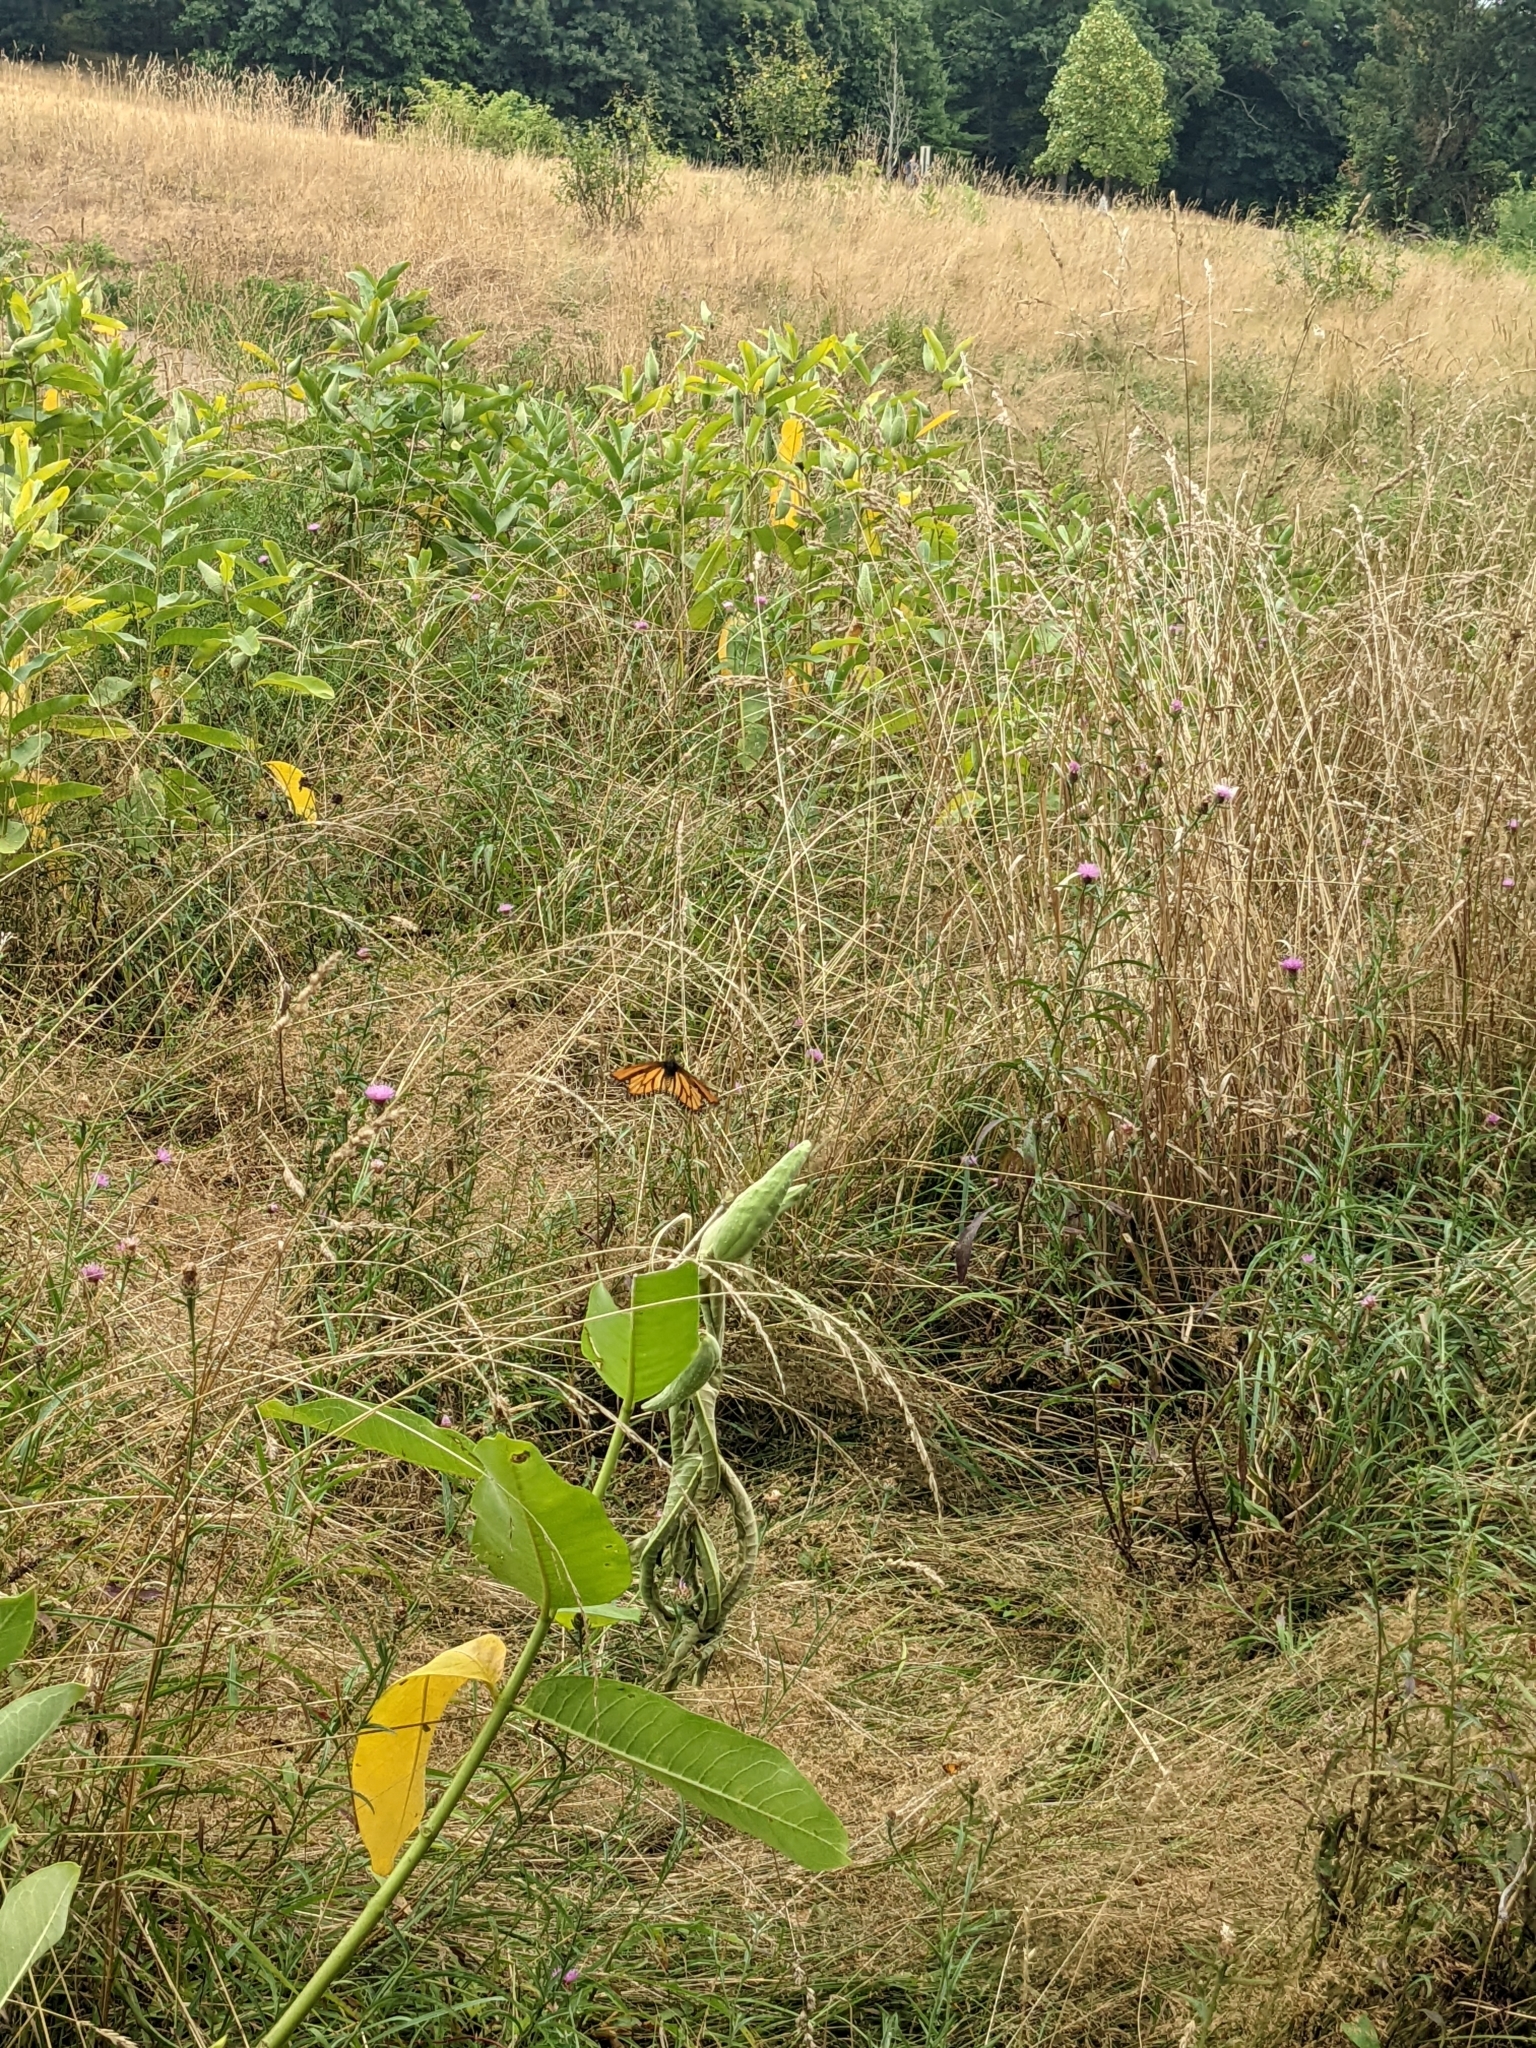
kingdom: Animalia
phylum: Arthropoda
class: Insecta
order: Lepidoptera
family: Nymphalidae
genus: Danaus
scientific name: Danaus plexippus
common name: Monarch
